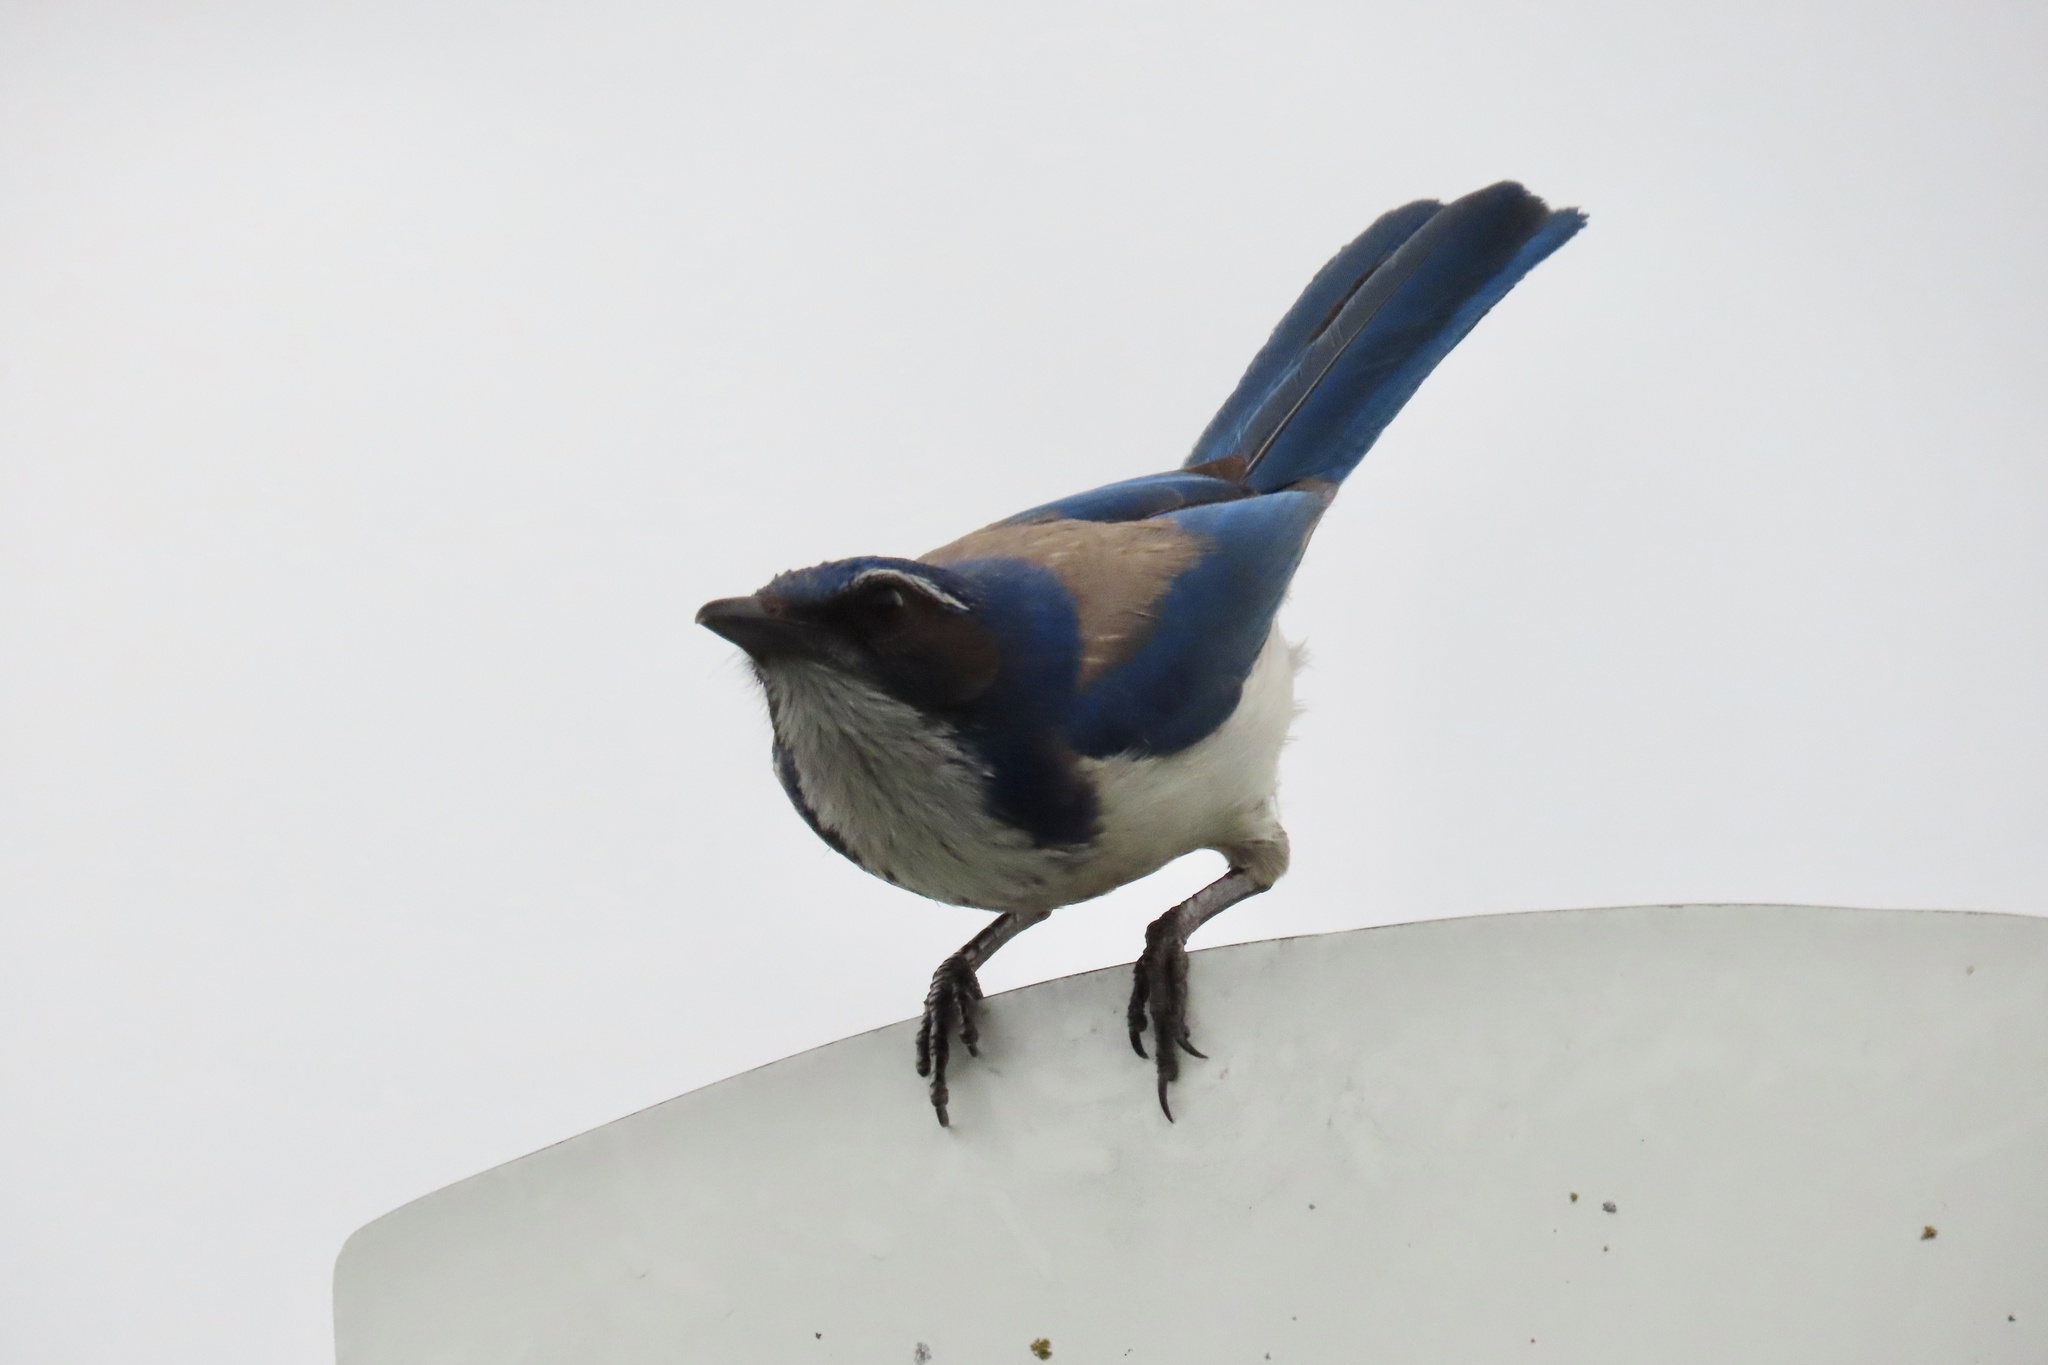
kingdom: Animalia
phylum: Chordata
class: Aves
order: Passeriformes
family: Corvidae
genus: Aphelocoma
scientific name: Aphelocoma californica
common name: California scrub-jay
